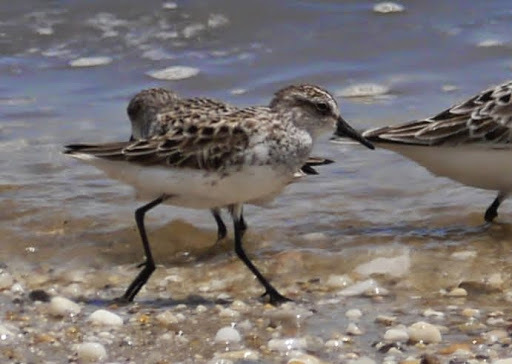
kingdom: Animalia
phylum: Chordata
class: Aves
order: Charadriiformes
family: Scolopacidae
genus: Calidris
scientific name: Calidris pusilla
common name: Semipalmated sandpiper
